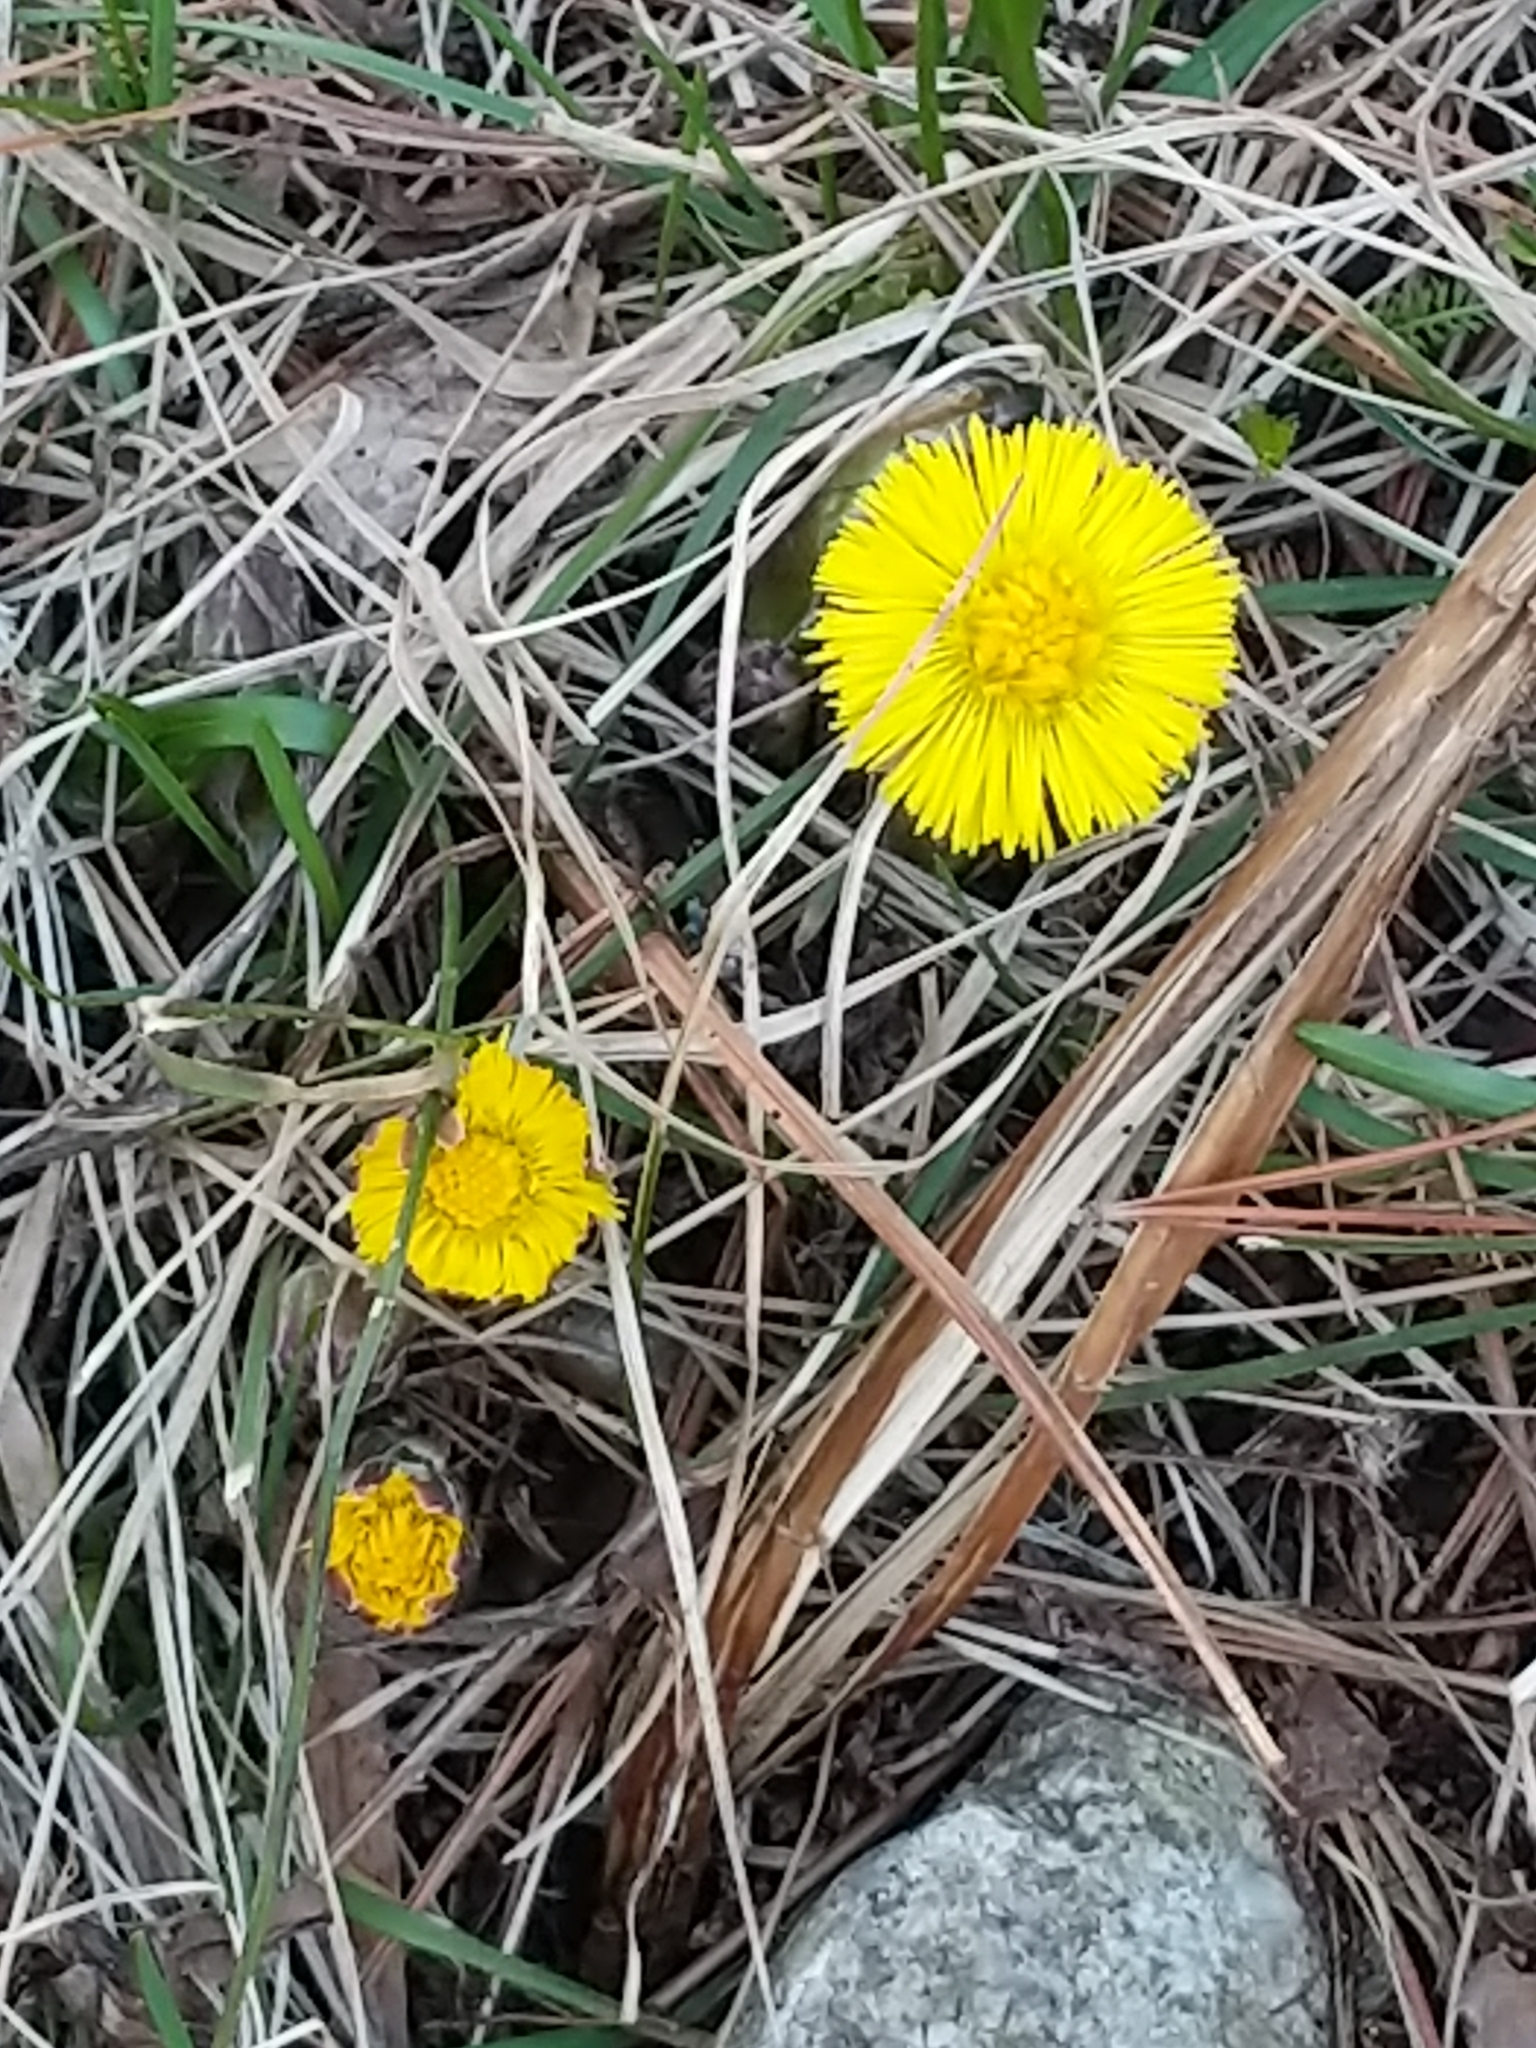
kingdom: Plantae
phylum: Tracheophyta
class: Magnoliopsida
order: Asterales
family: Asteraceae
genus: Tussilago
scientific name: Tussilago farfara
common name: Coltsfoot
